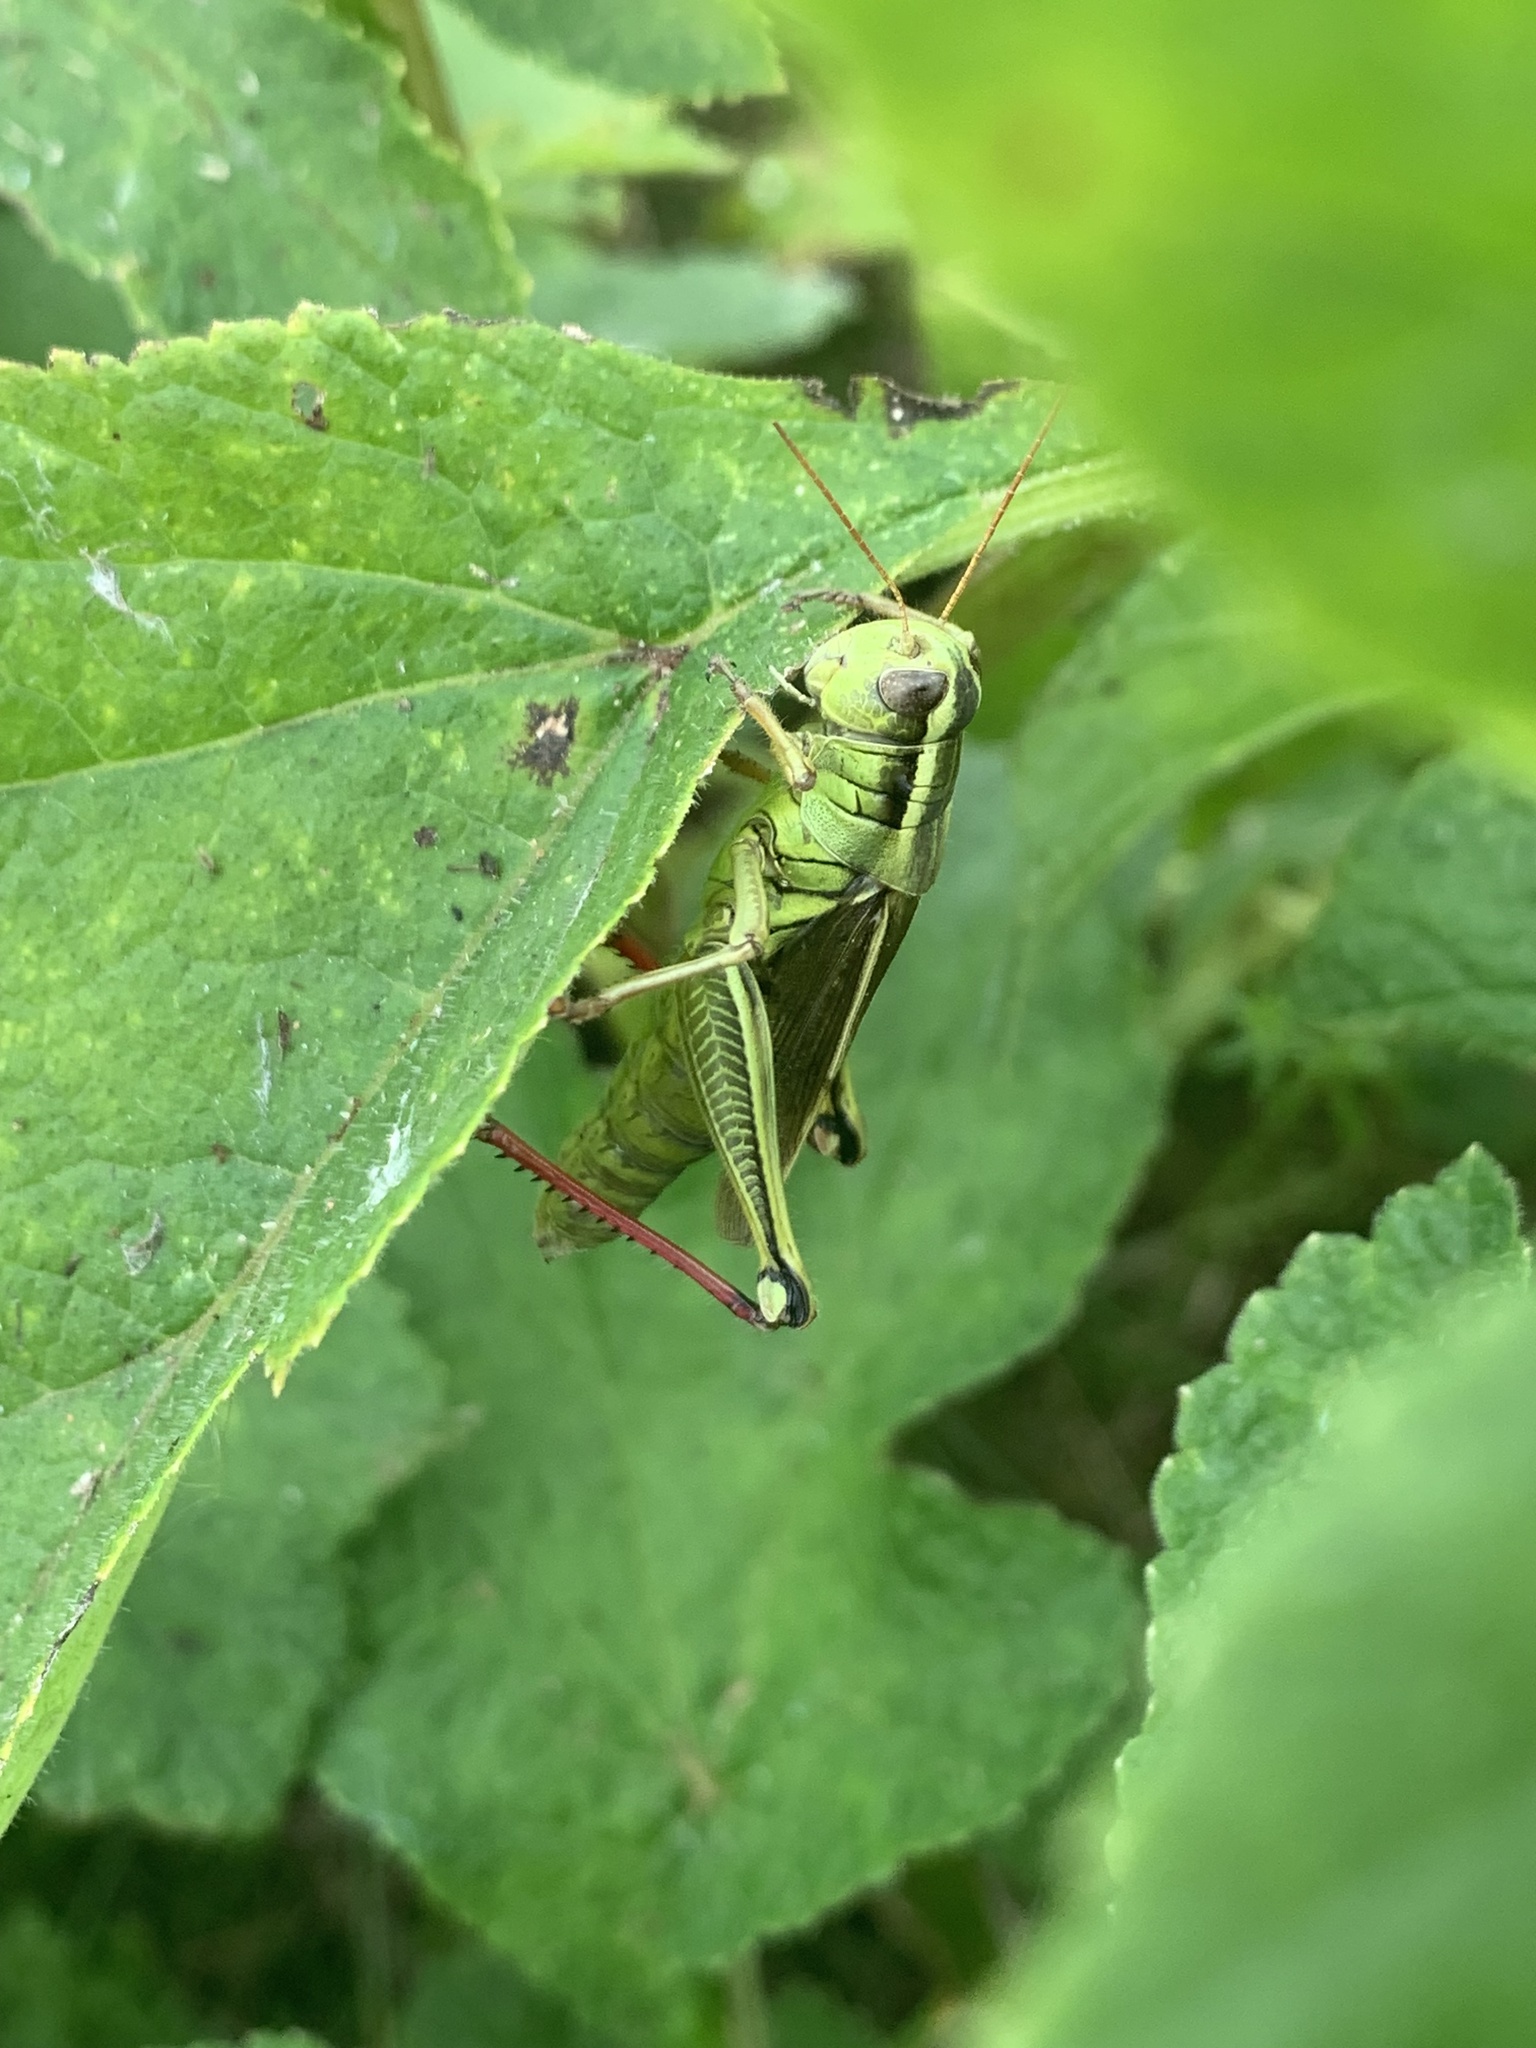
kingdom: Animalia
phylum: Arthropoda
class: Insecta
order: Orthoptera
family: Acrididae
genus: Melanoplus
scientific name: Melanoplus bivittatus
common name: Two-striped grasshopper
